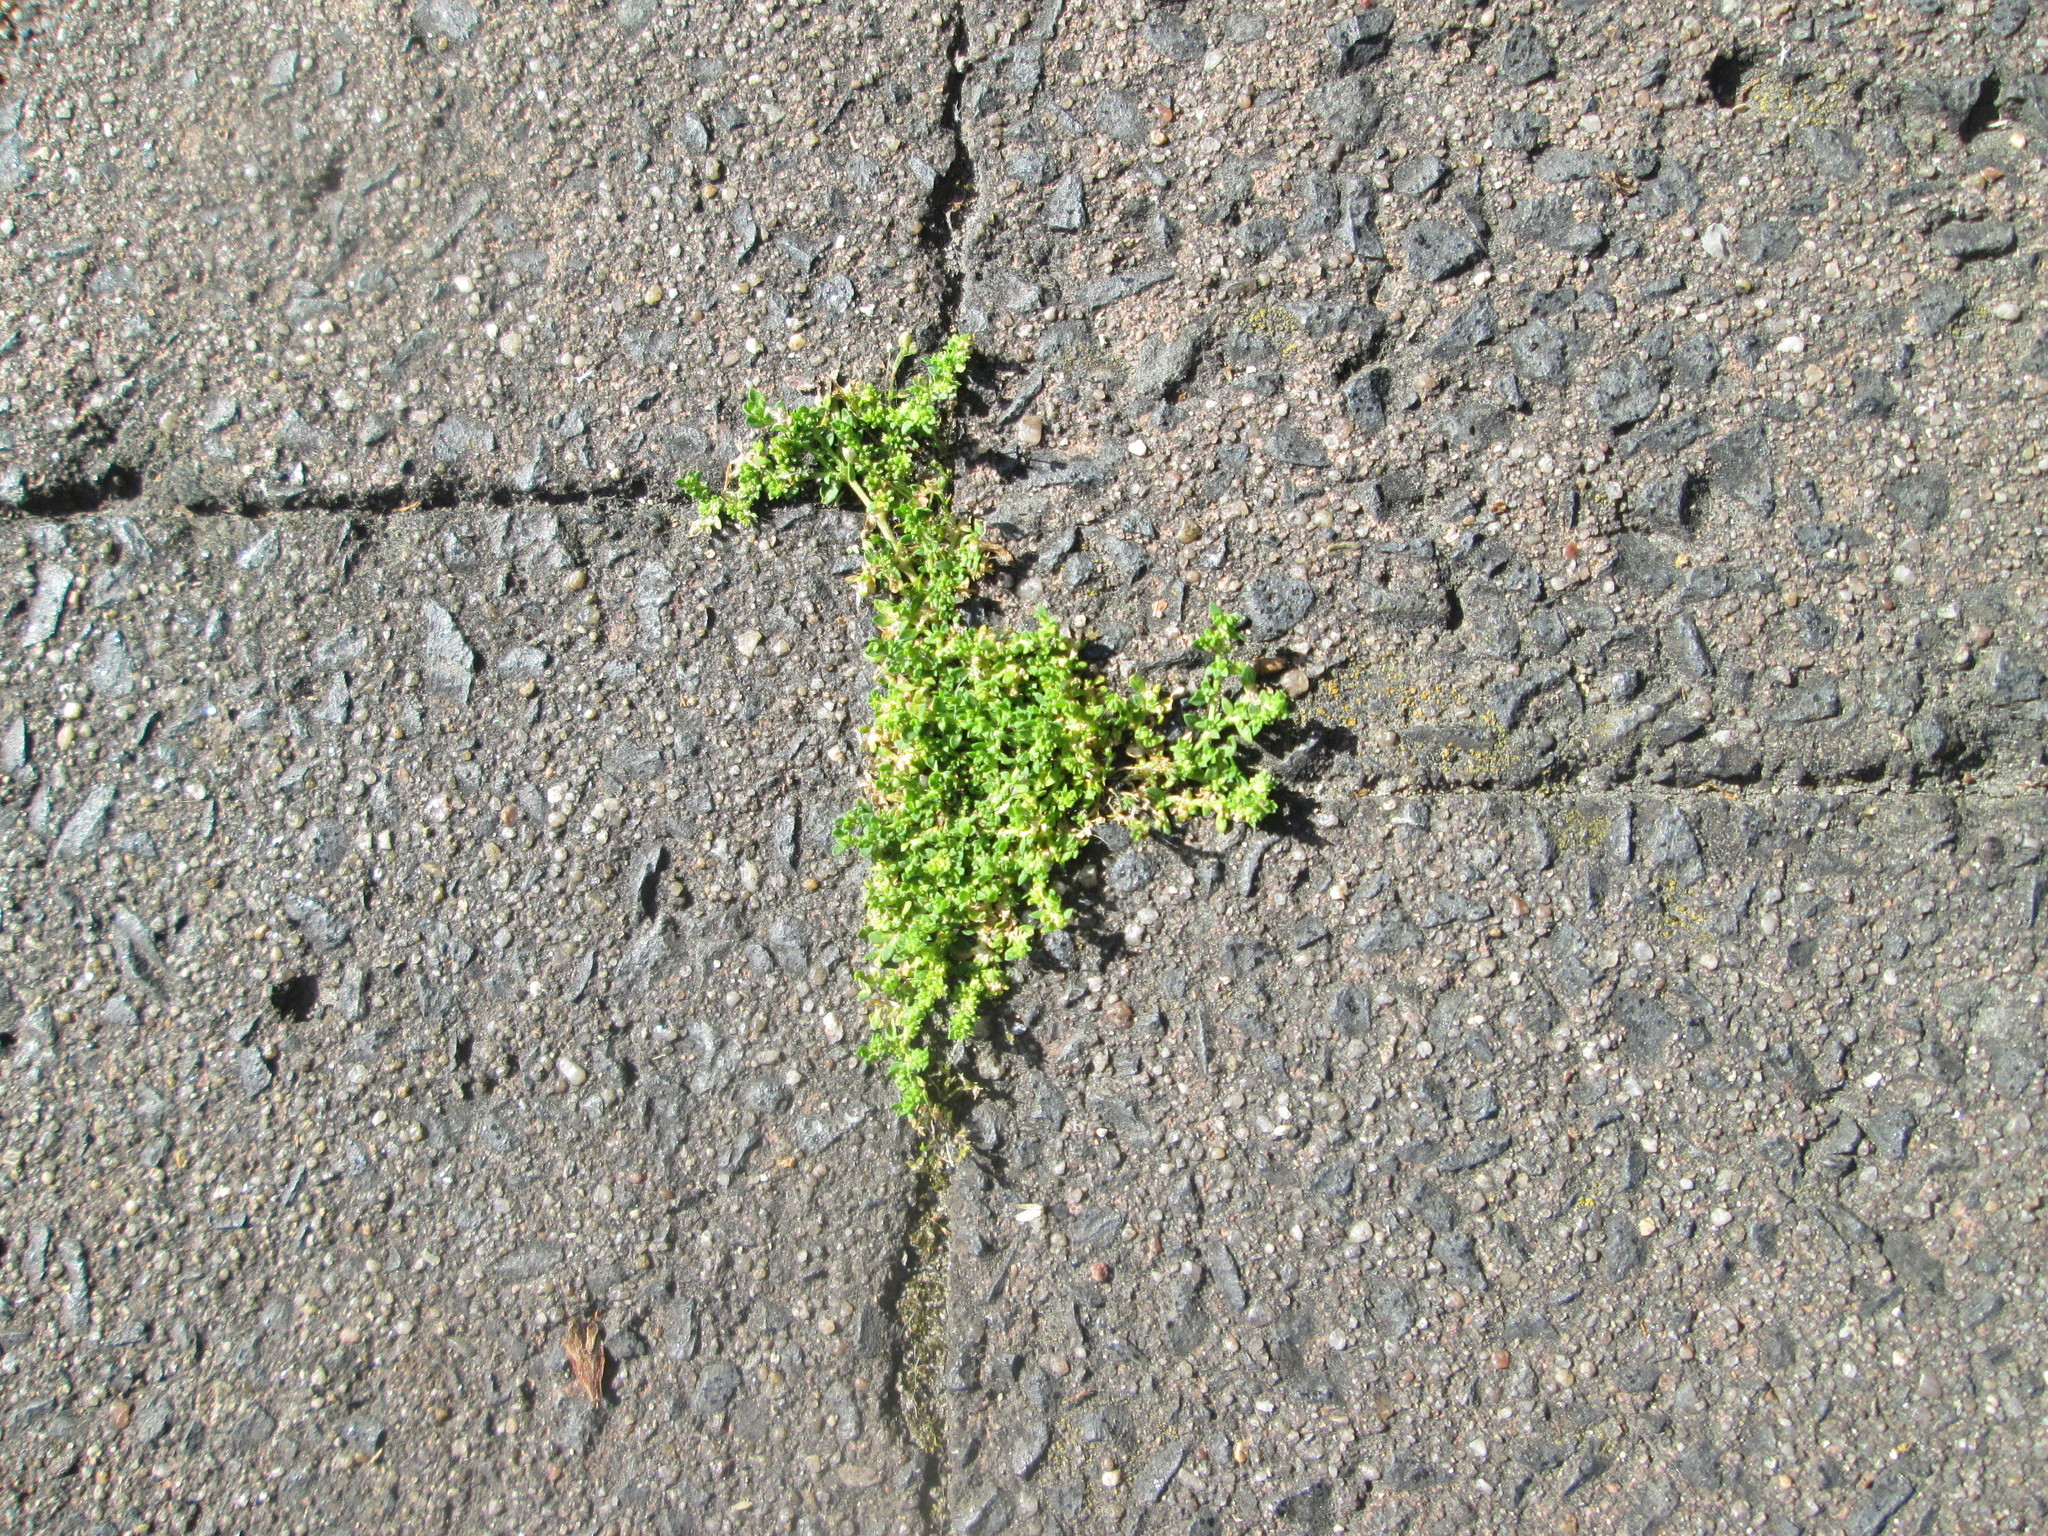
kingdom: Plantae
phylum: Tracheophyta
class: Magnoliopsida
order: Caryophyllales
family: Caryophyllaceae
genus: Herniaria
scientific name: Herniaria glabra
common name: Smooth rupturewort
